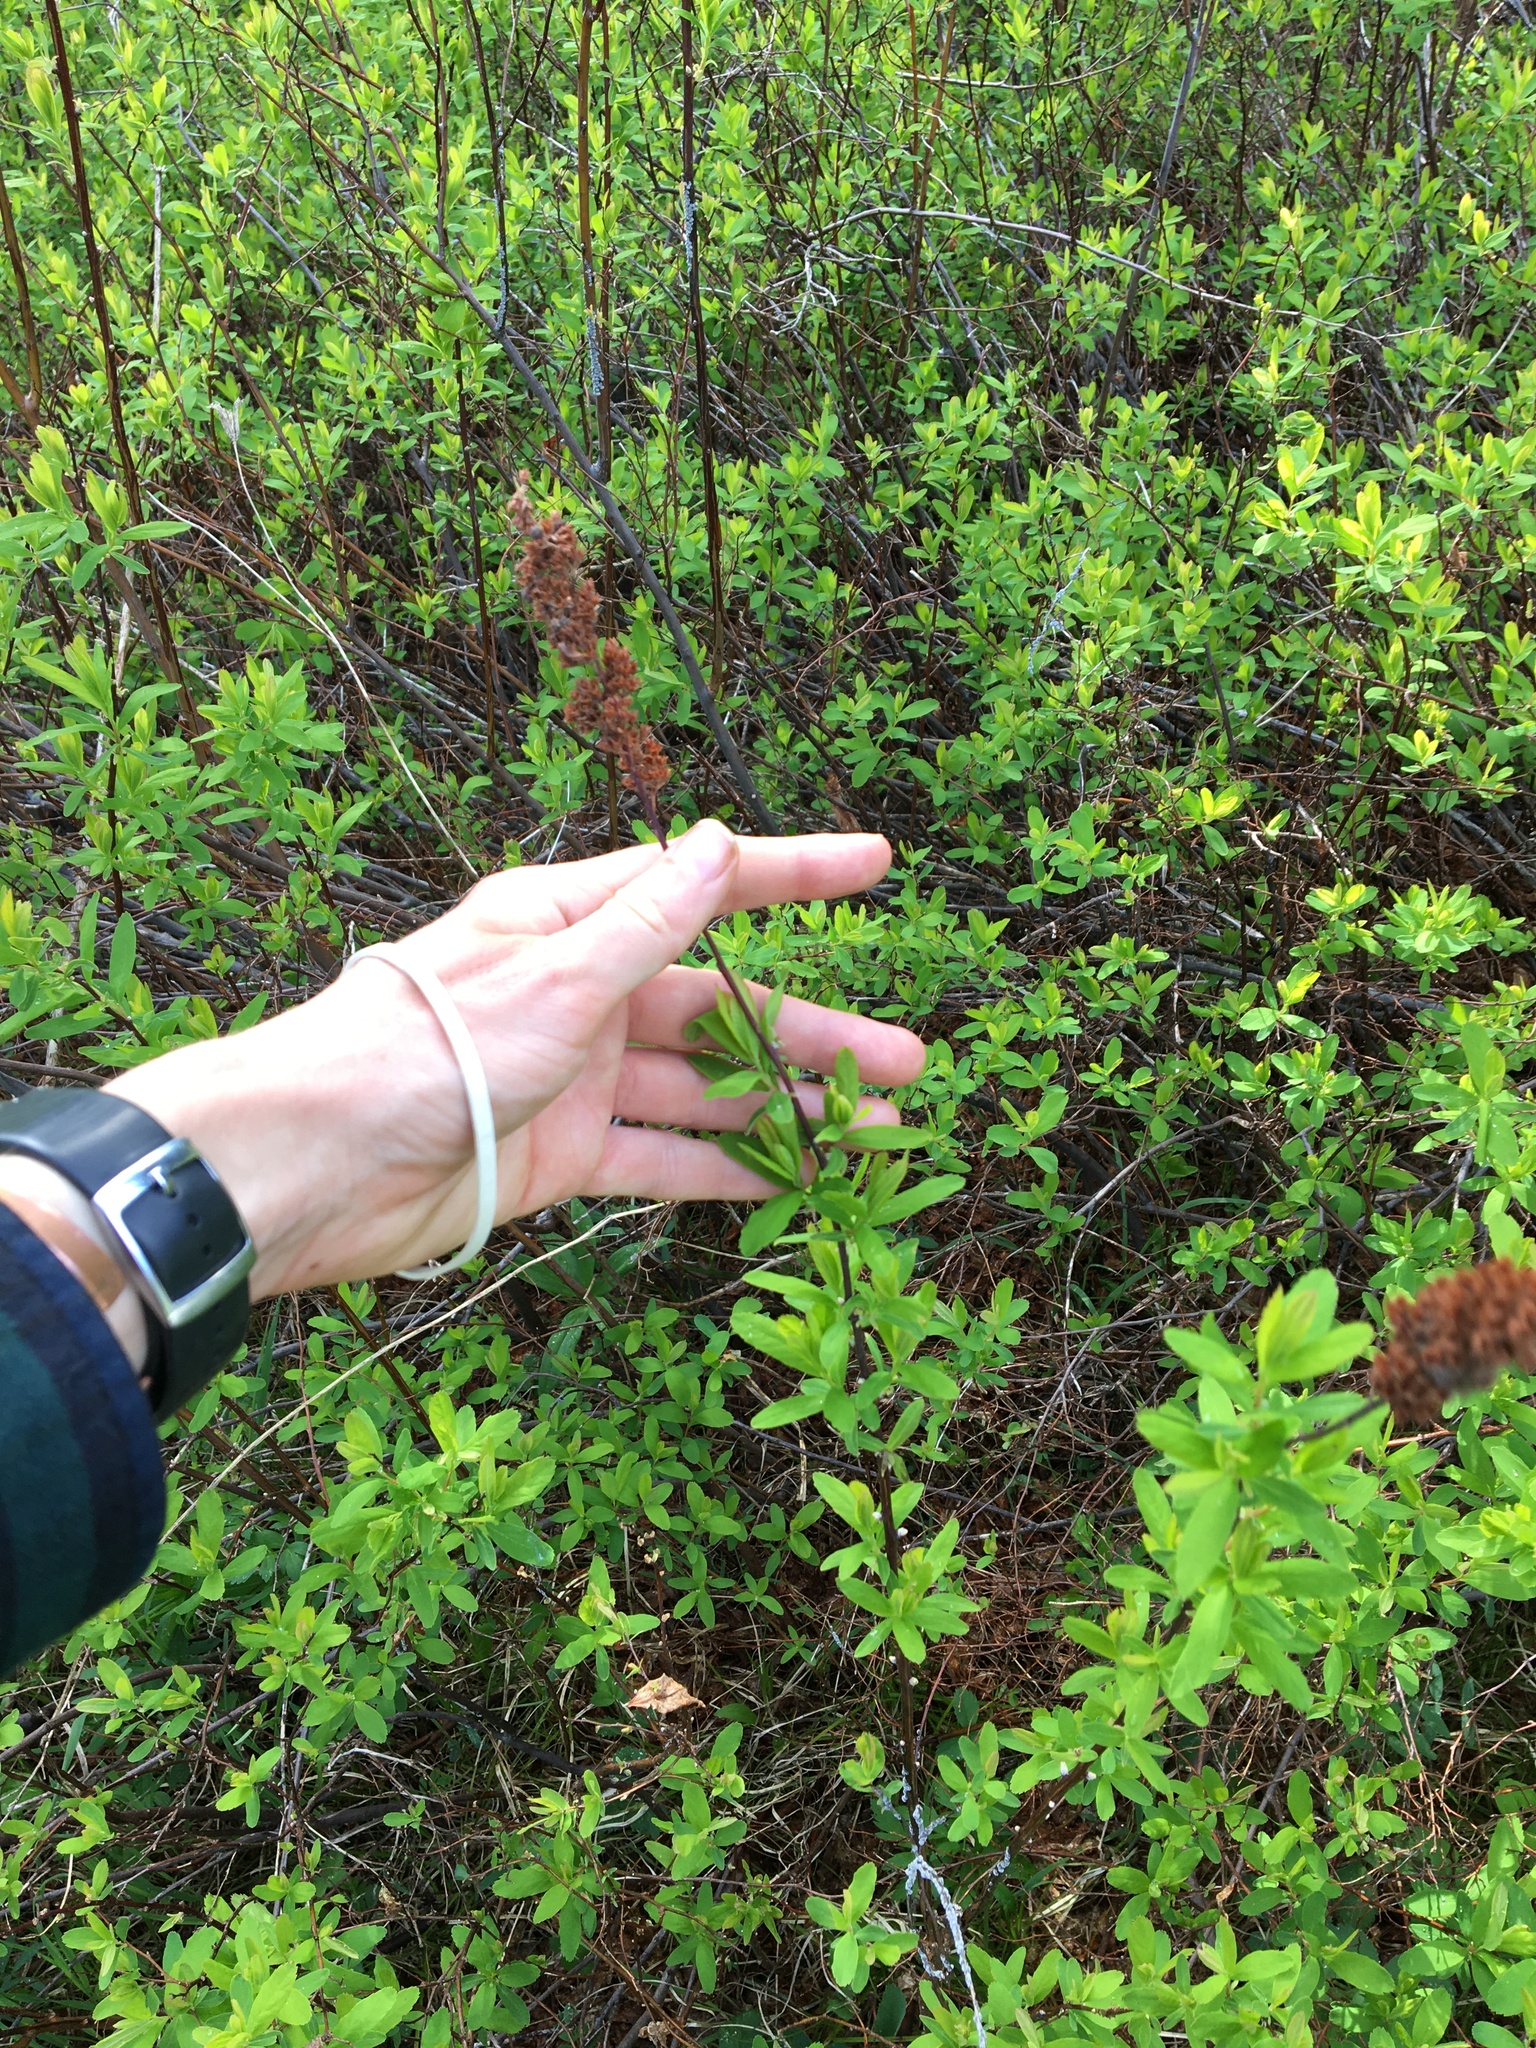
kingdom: Plantae
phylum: Tracheophyta
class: Magnoliopsida
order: Rosales
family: Rosaceae
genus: Spiraea
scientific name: Spiraea douglasii
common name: Steeplebush
